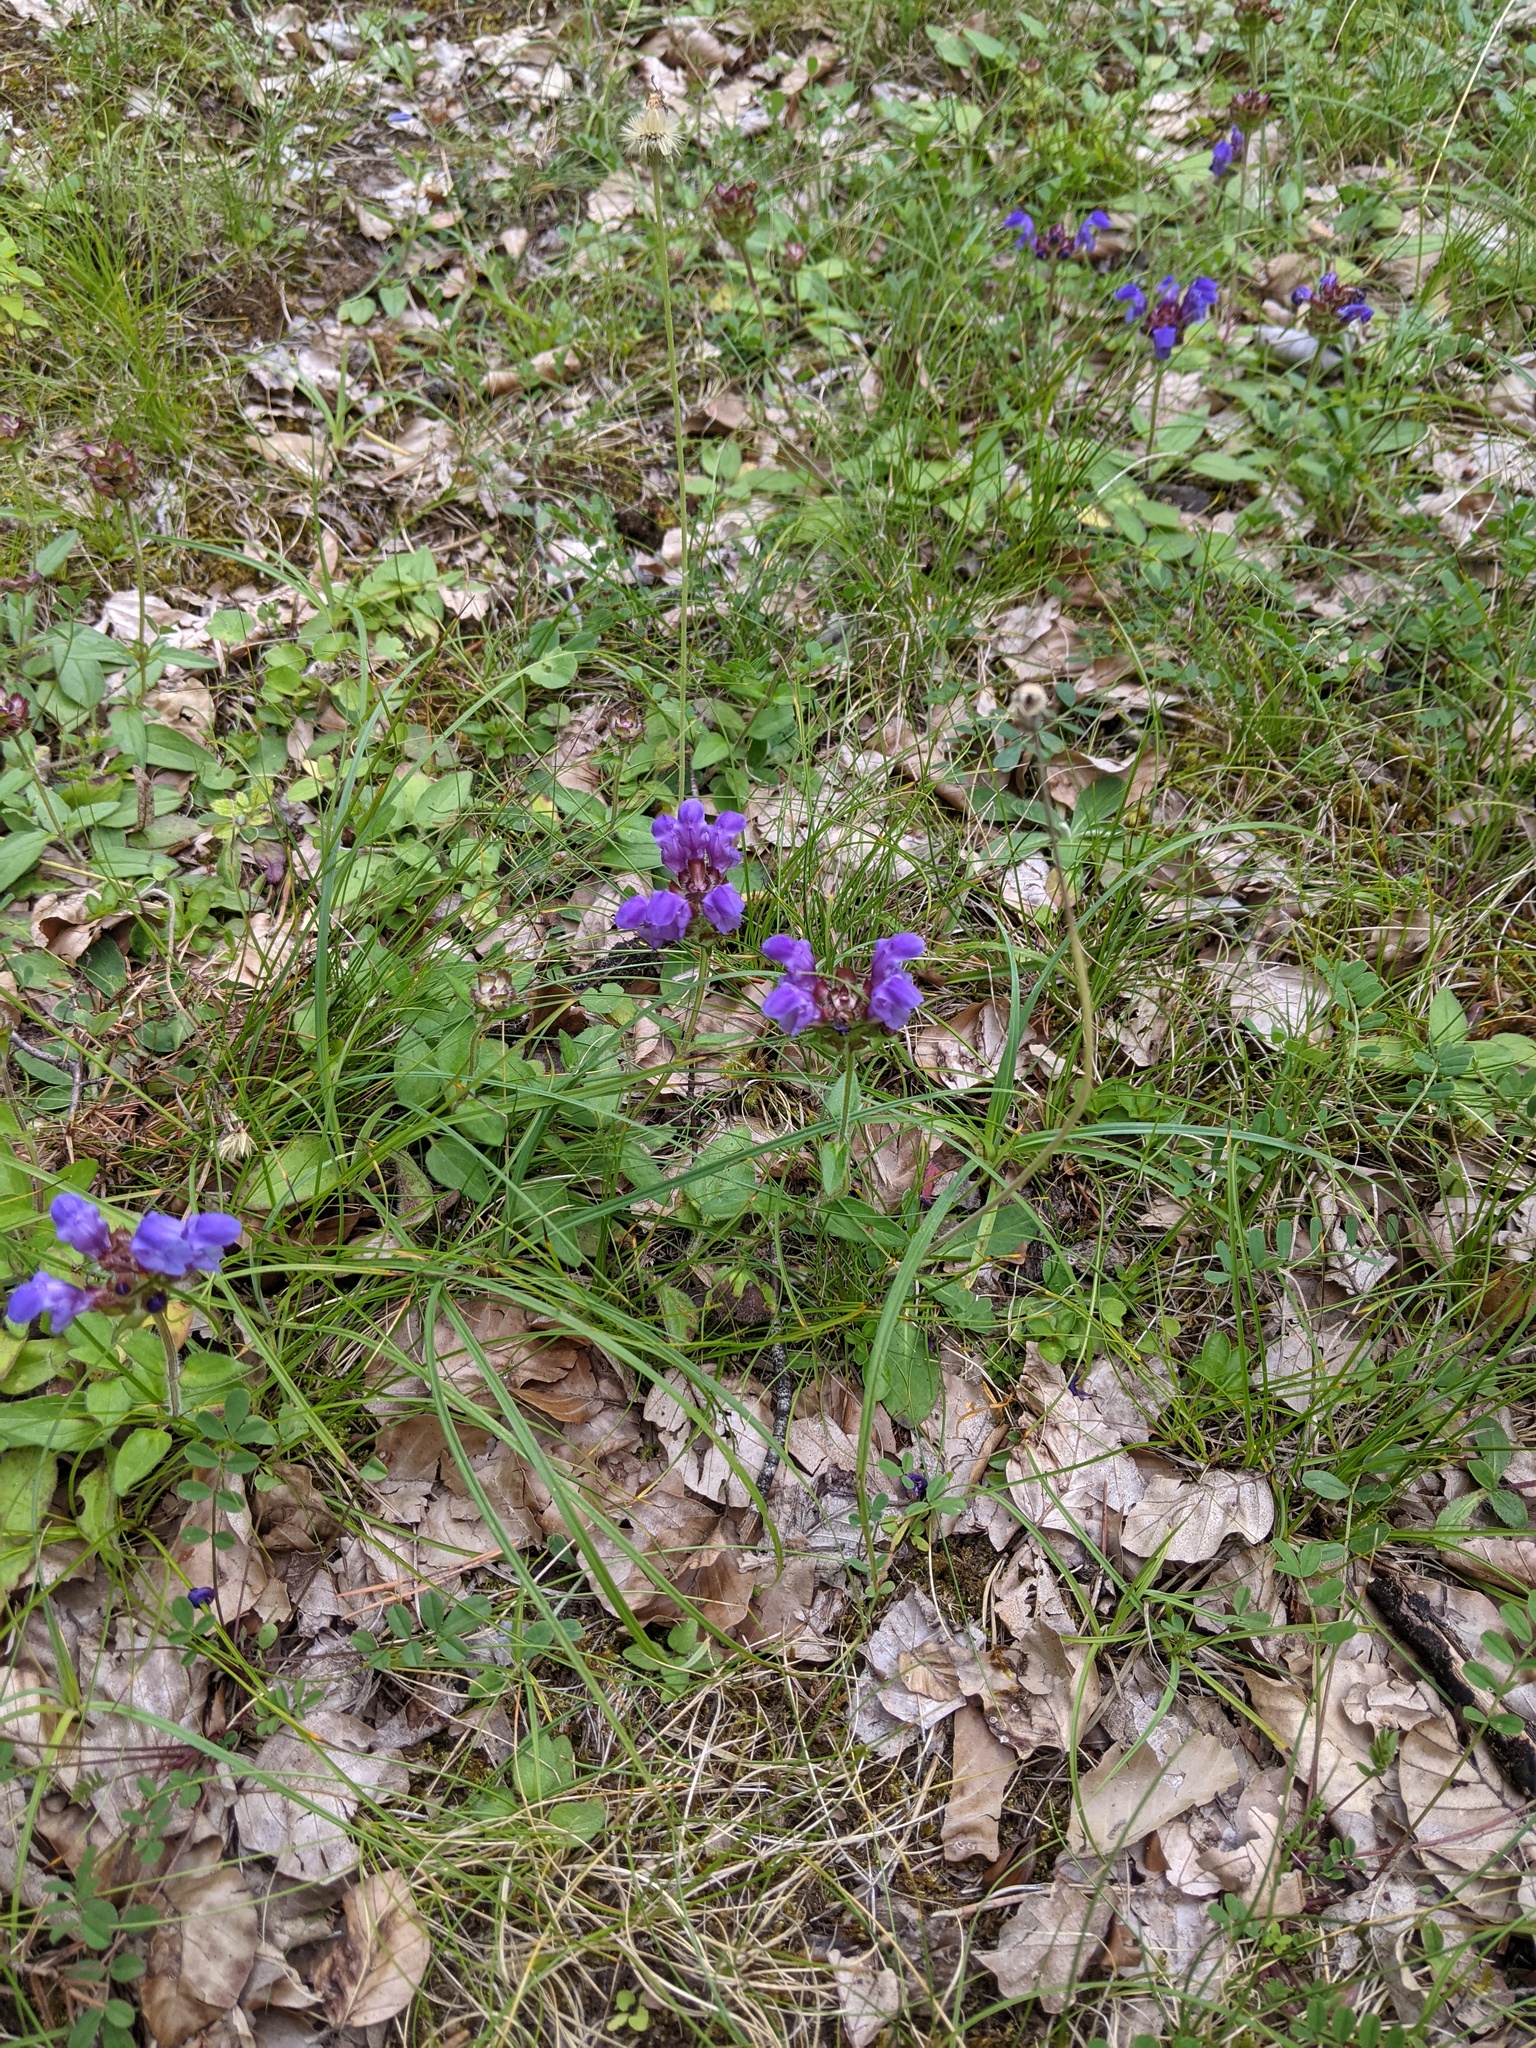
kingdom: Plantae
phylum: Tracheophyta
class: Magnoliopsida
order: Lamiales
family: Lamiaceae
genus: Prunella
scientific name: Prunella grandiflora
